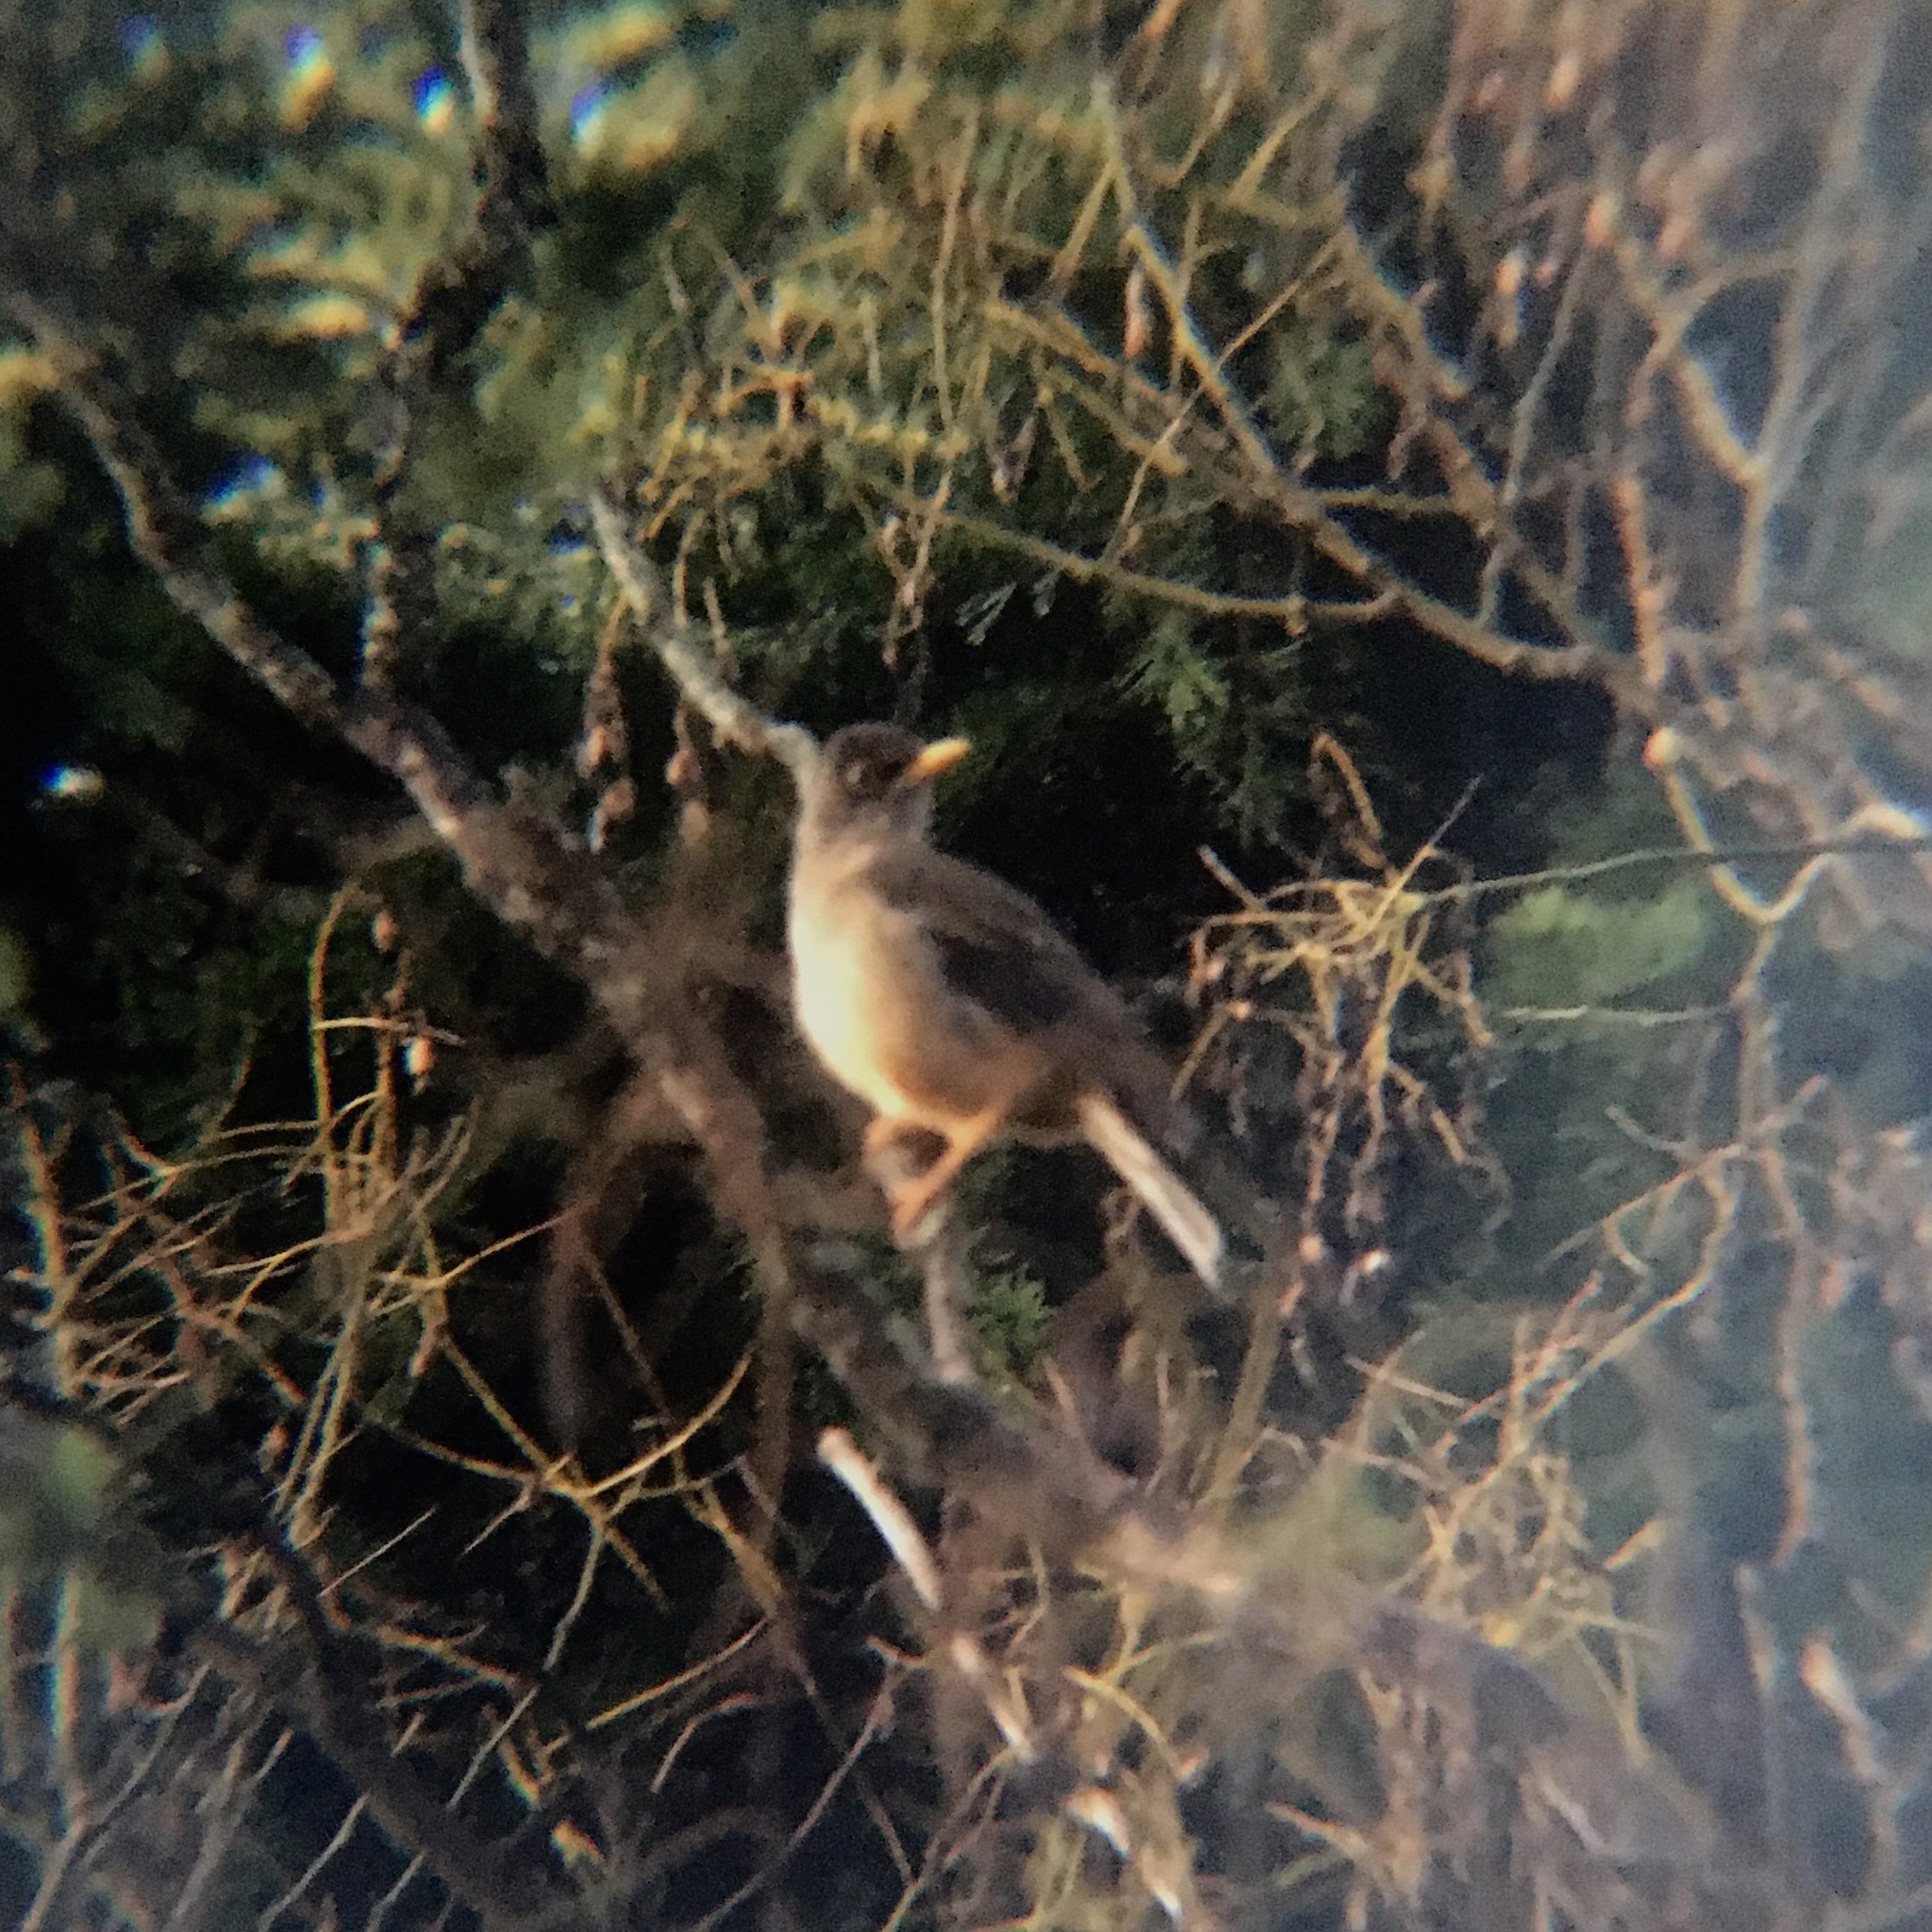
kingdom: Animalia
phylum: Chordata
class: Aves
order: Passeriformes
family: Turdidae
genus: Turdus
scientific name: Turdus falcklandii
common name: Austral thrush
